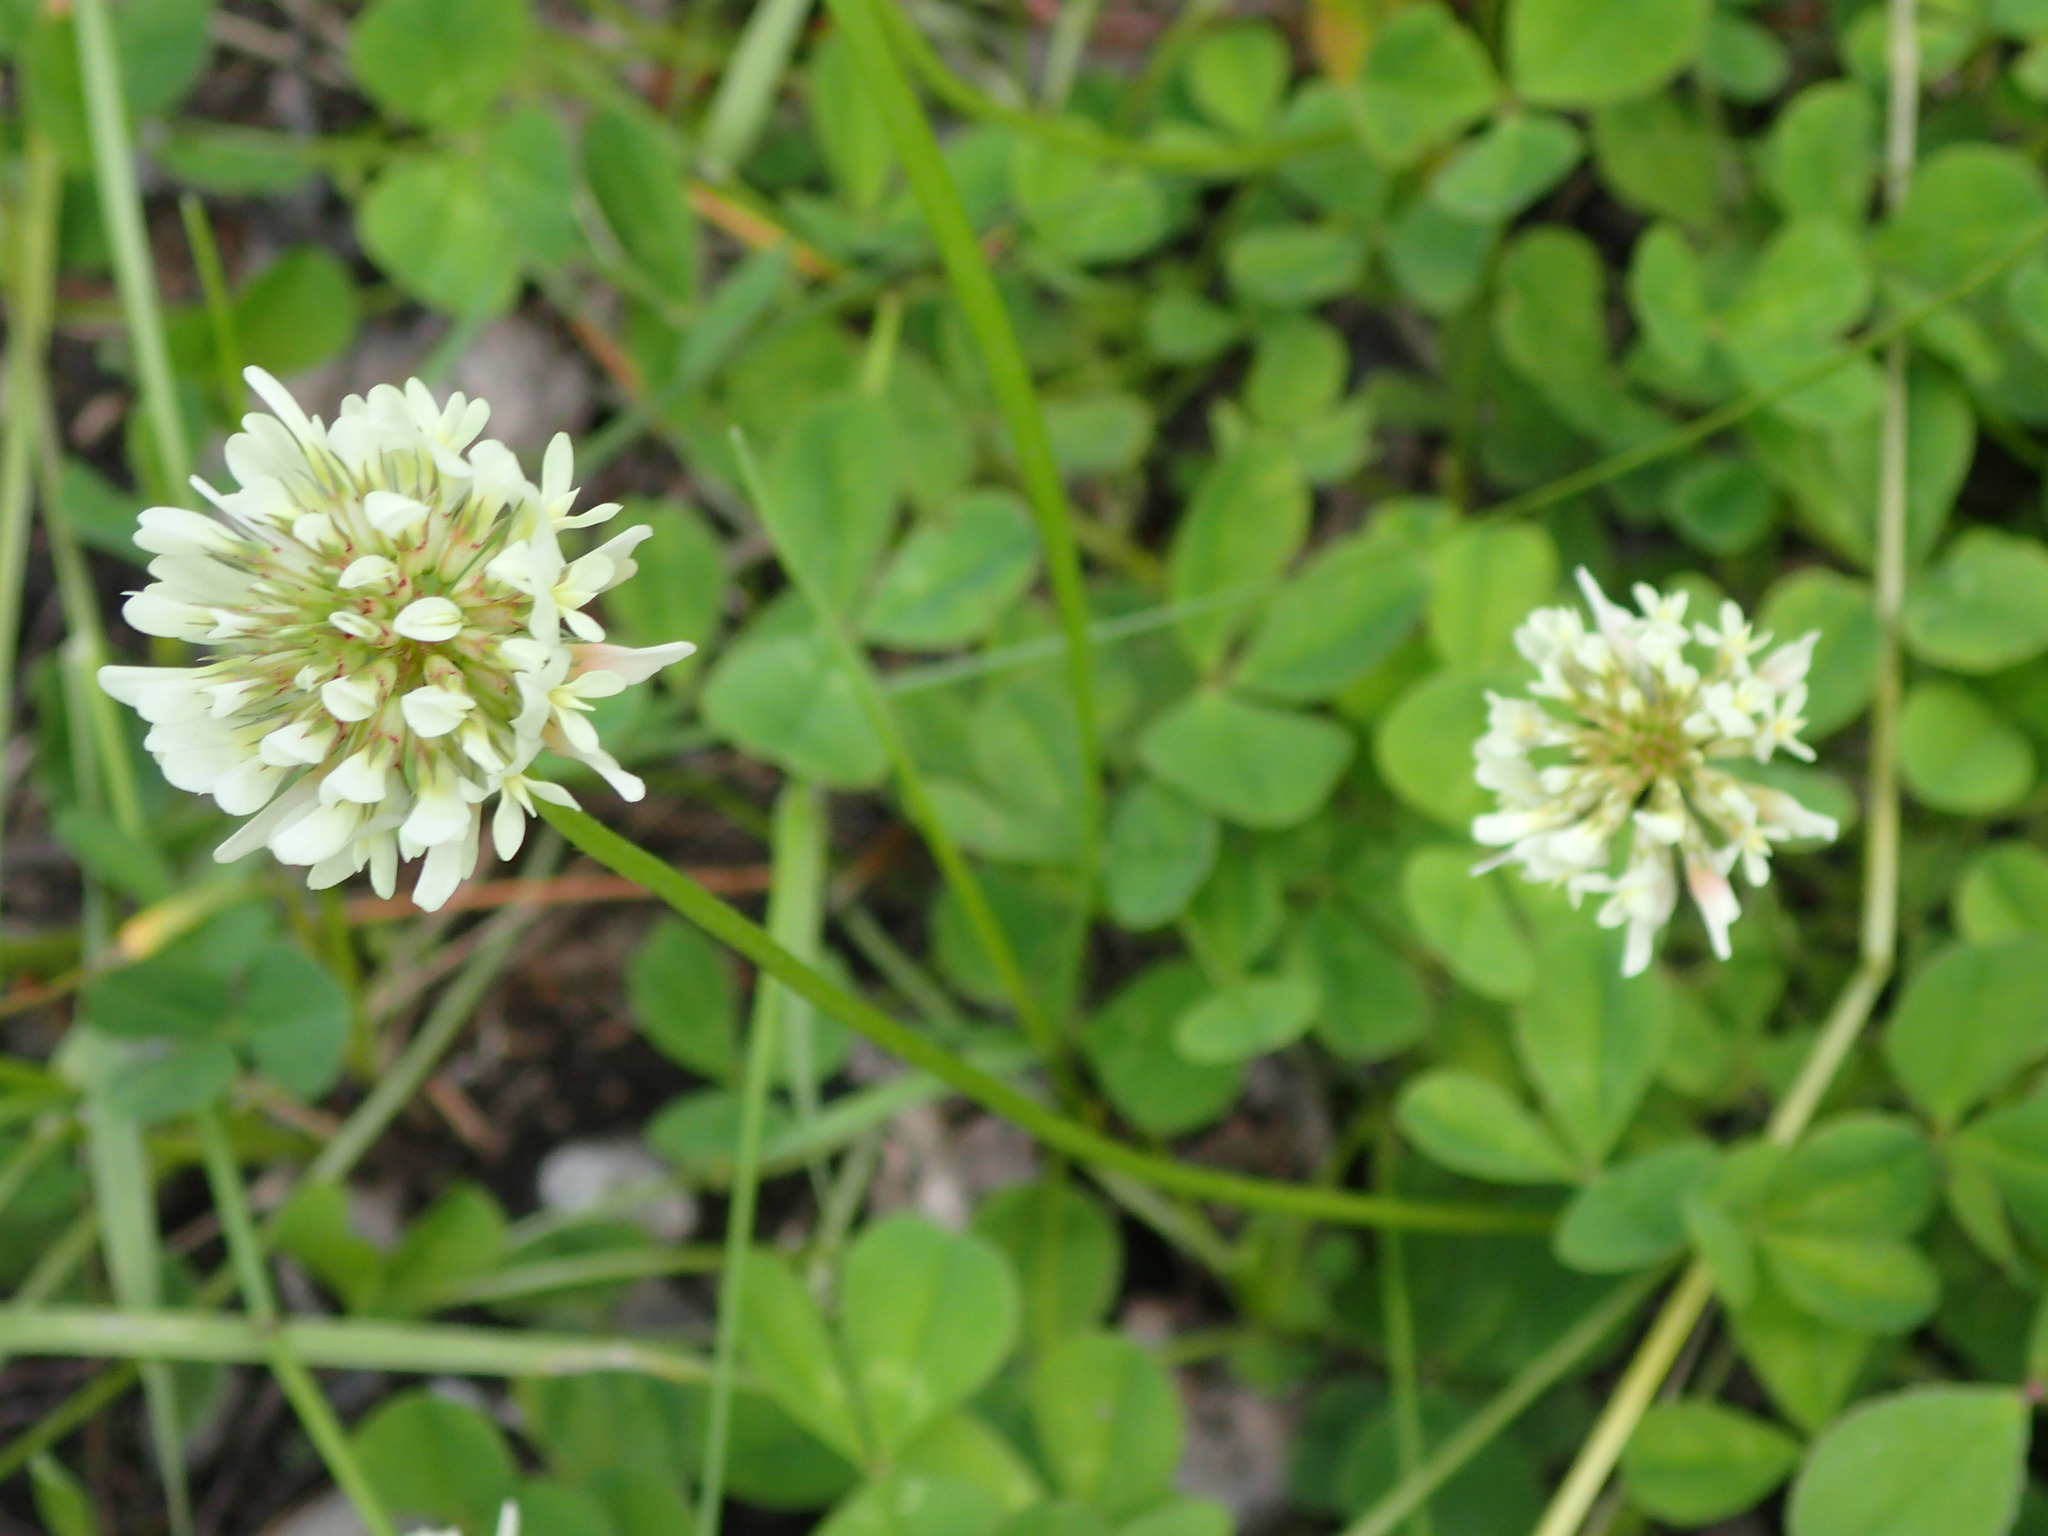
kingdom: Plantae
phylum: Tracheophyta
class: Magnoliopsida
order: Fabales
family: Fabaceae
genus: Trifolium
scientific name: Trifolium repens
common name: White clover
